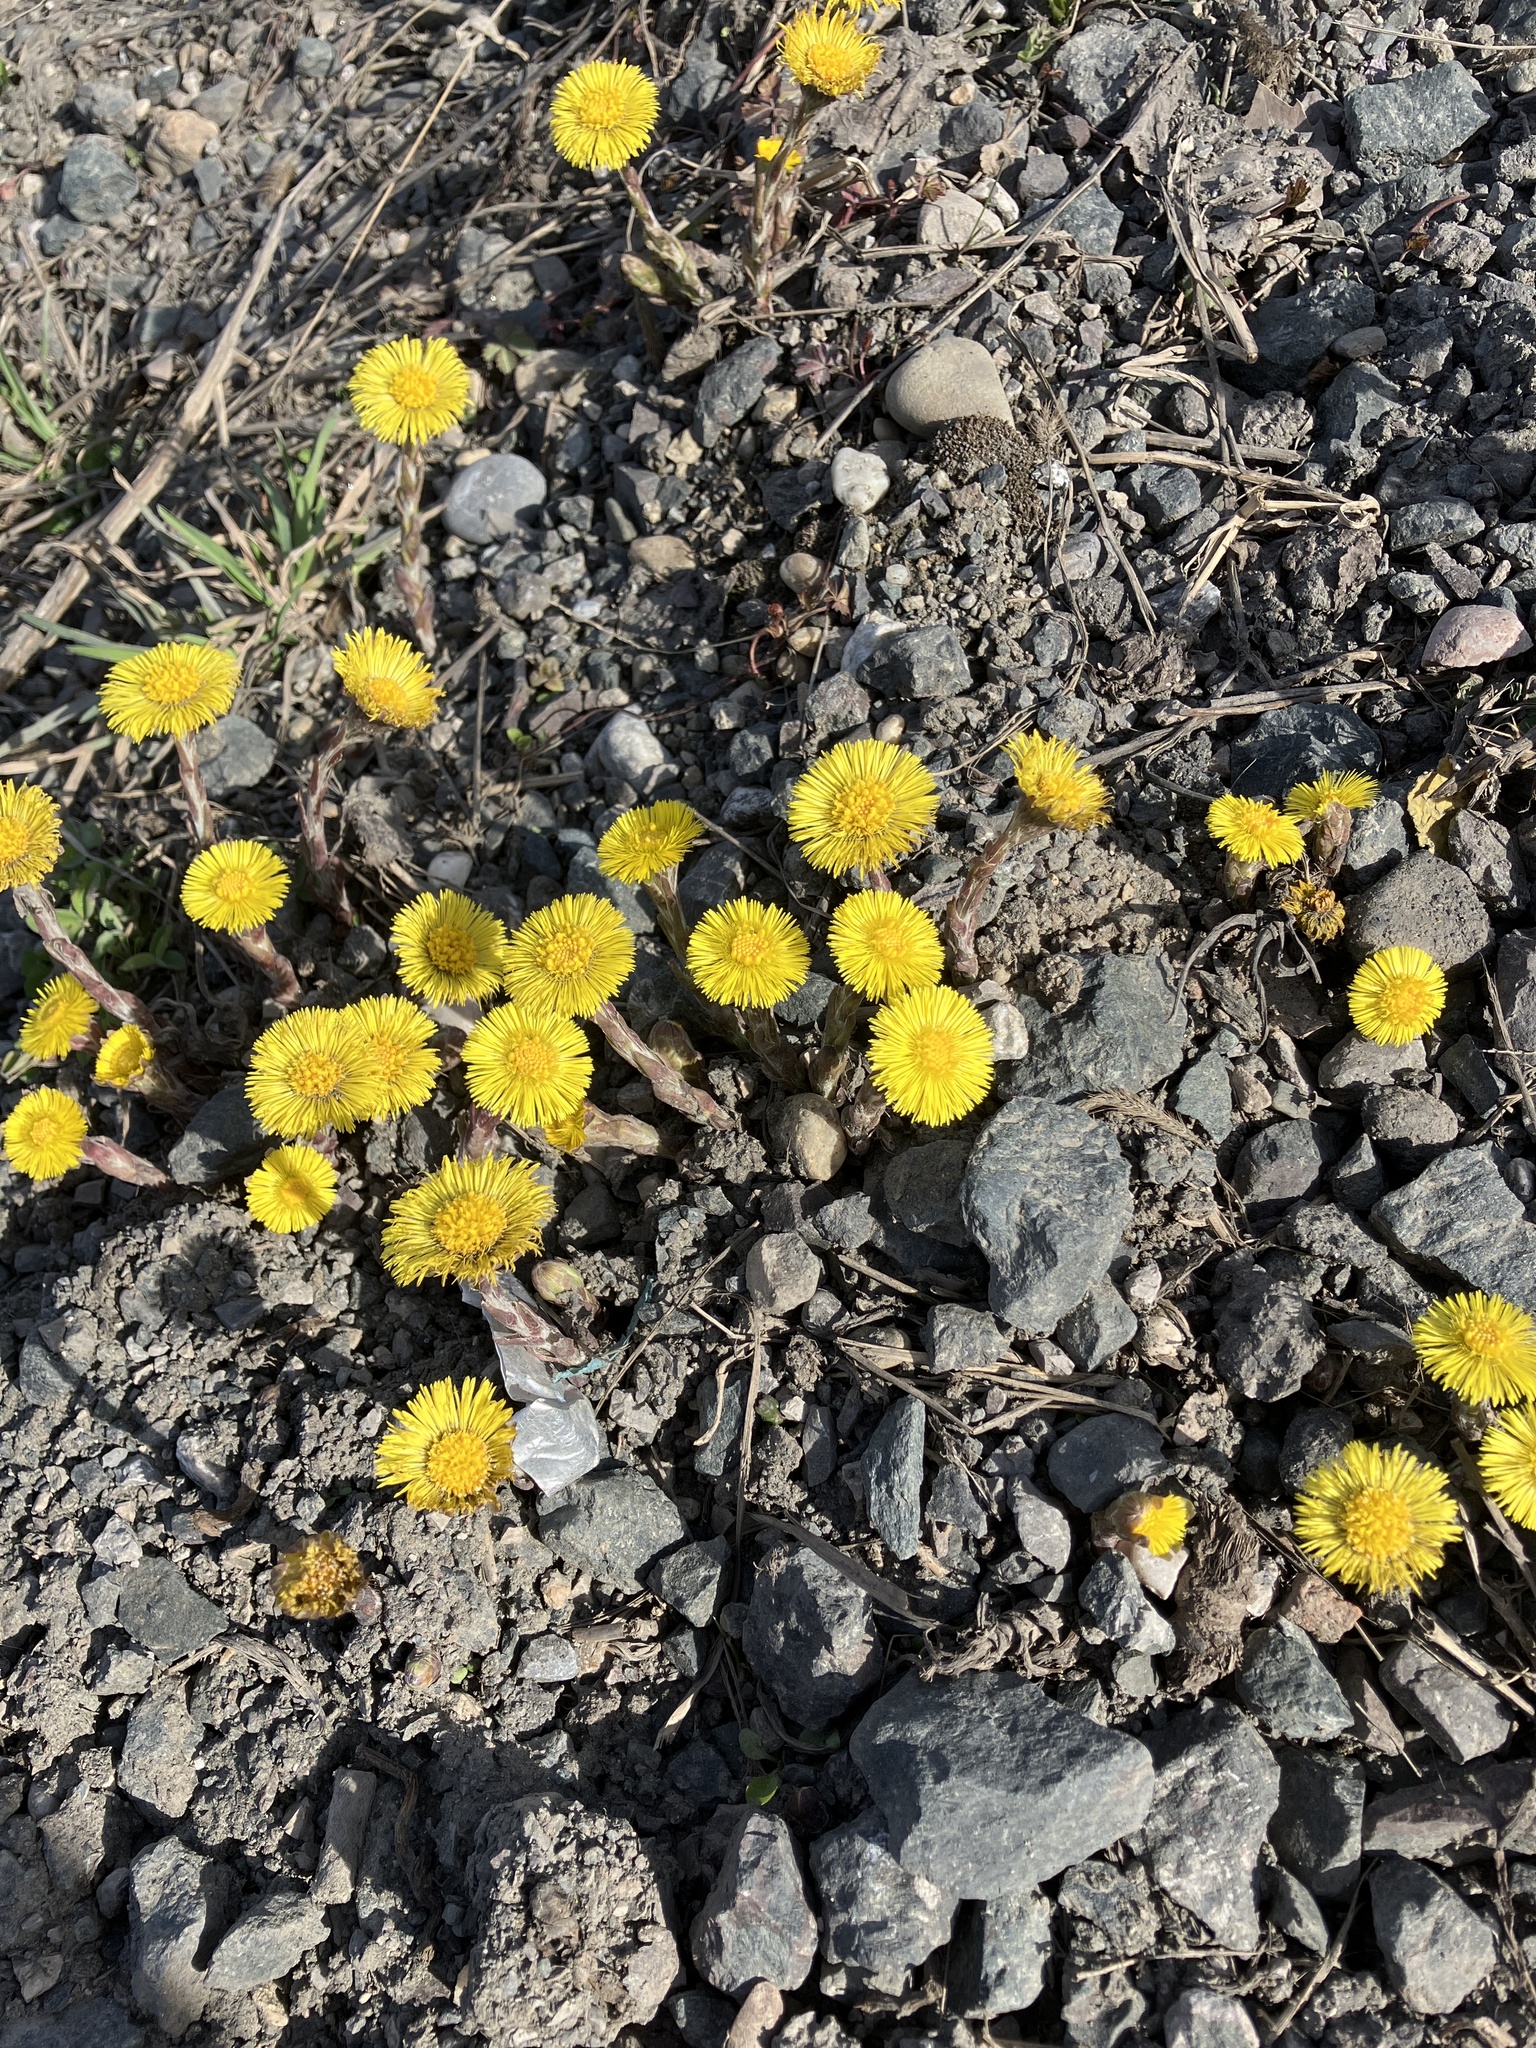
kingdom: Plantae
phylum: Tracheophyta
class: Magnoliopsida
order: Asterales
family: Asteraceae
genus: Tussilago
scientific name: Tussilago farfara
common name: Coltsfoot
